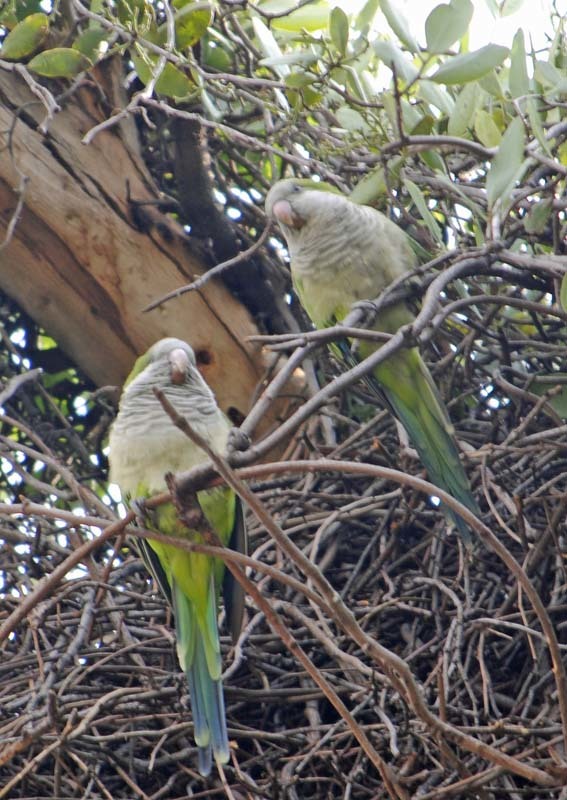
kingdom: Animalia
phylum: Chordata
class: Aves
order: Psittaciformes
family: Psittacidae
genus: Myiopsitta
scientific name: Myiopsitta monachus
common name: Monk parakeet
